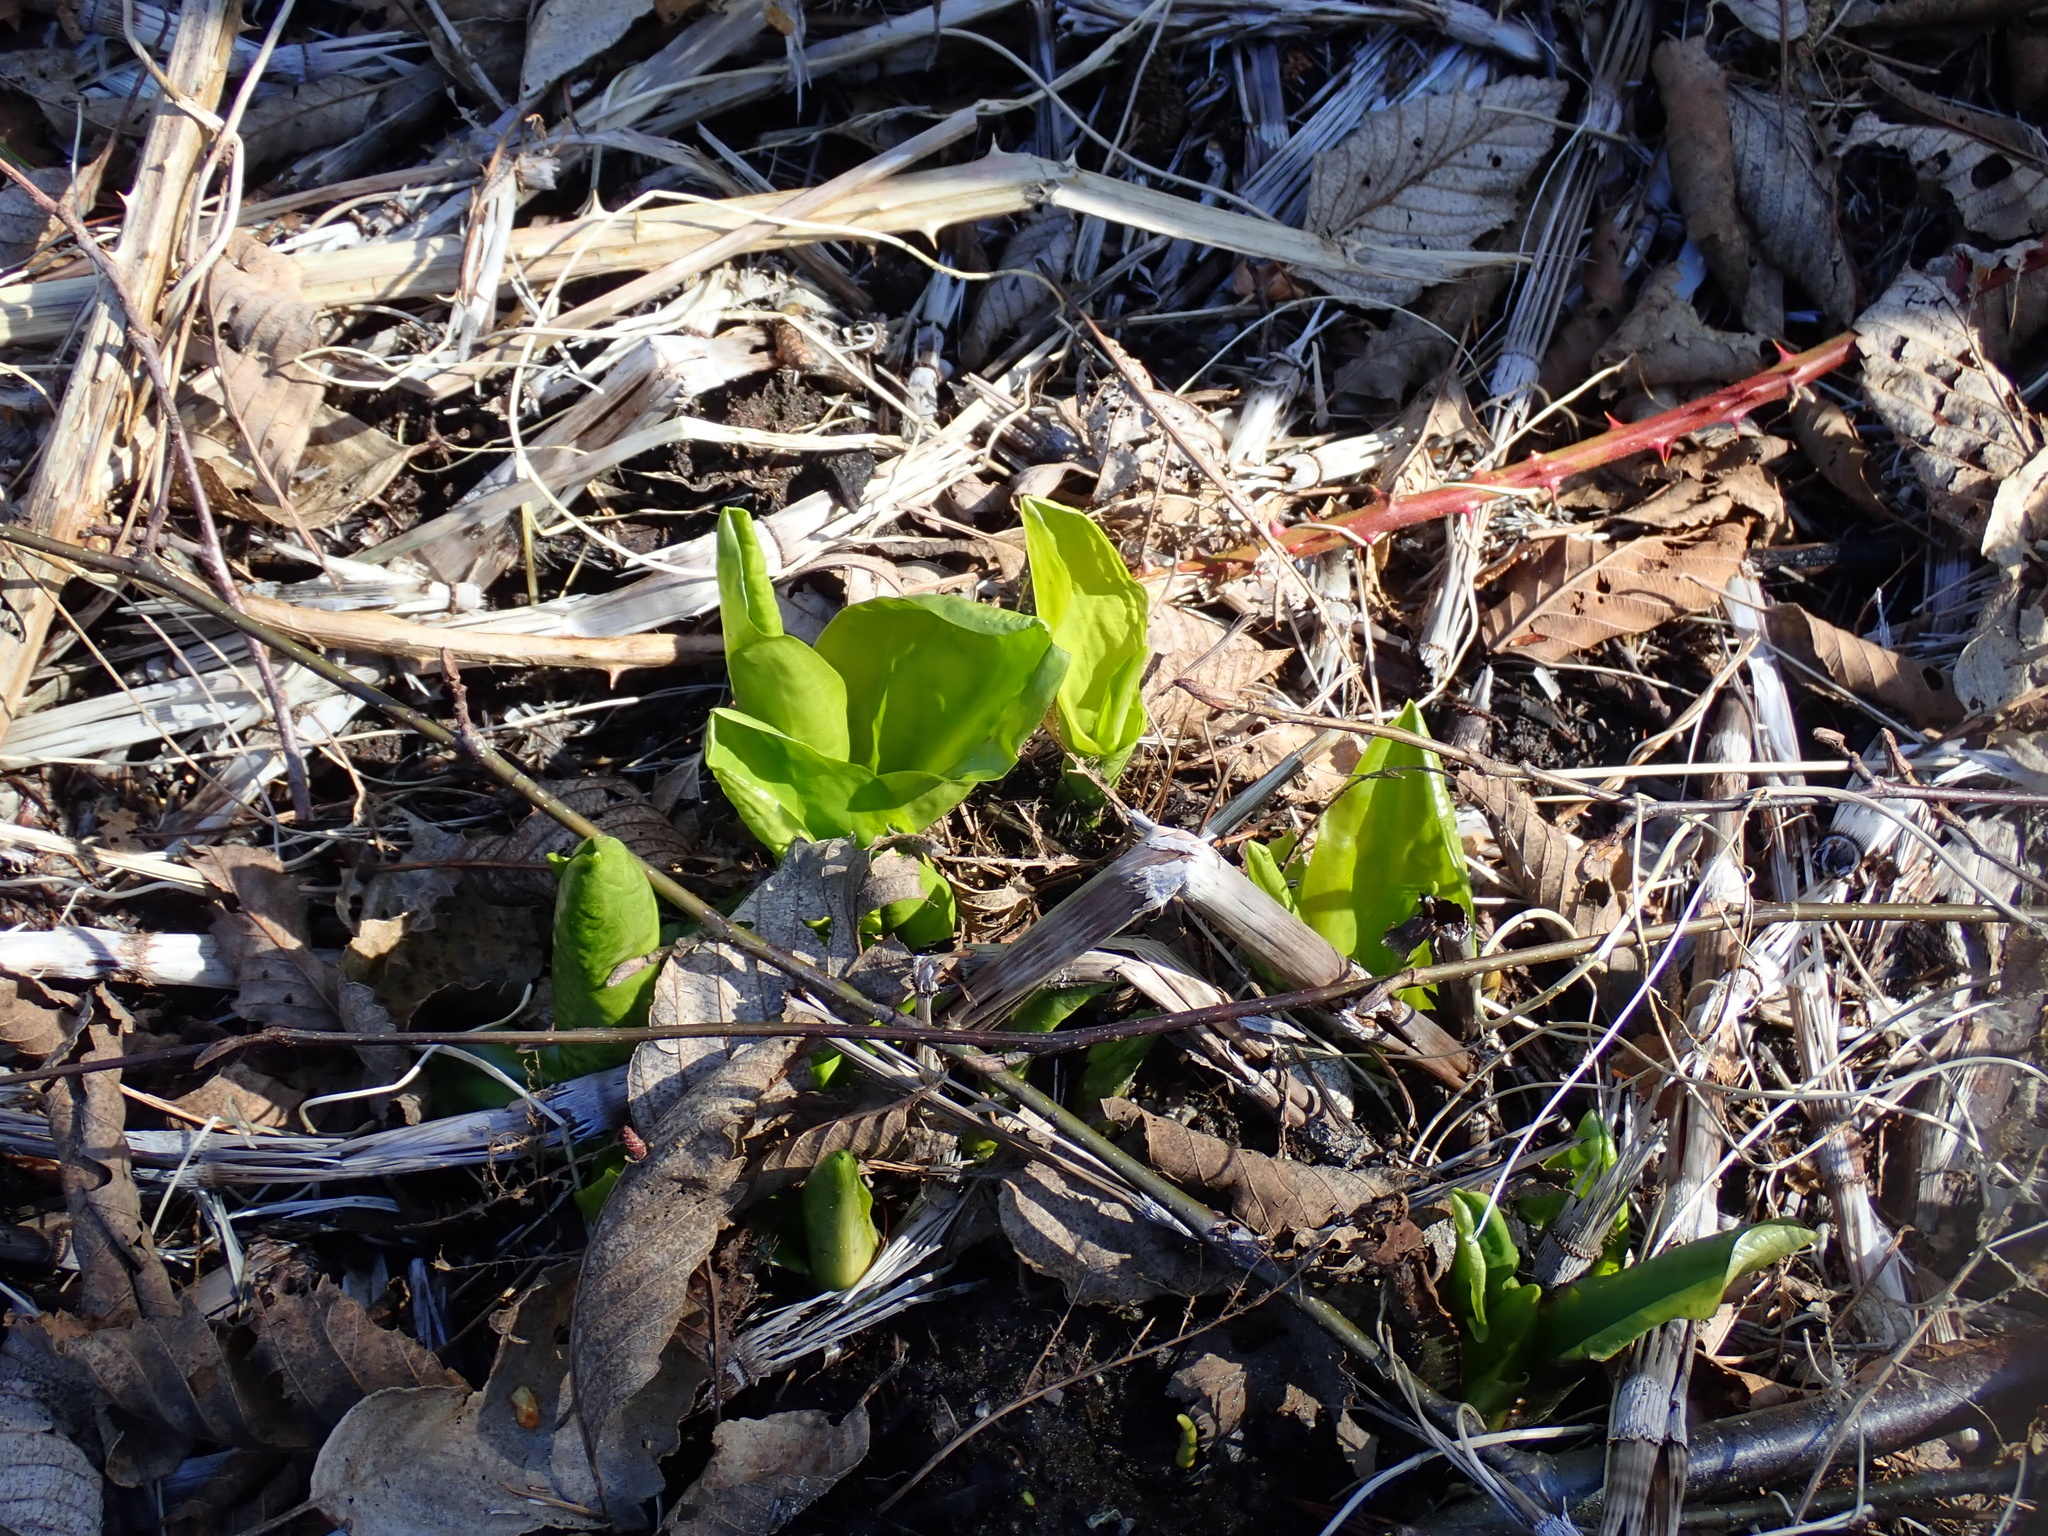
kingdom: Plantae
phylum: Tracheophyta
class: Liliopsida
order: Alismatales
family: Araceae
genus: Lysichiton
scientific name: Lysichiton americanus
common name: American skunk cabbage
